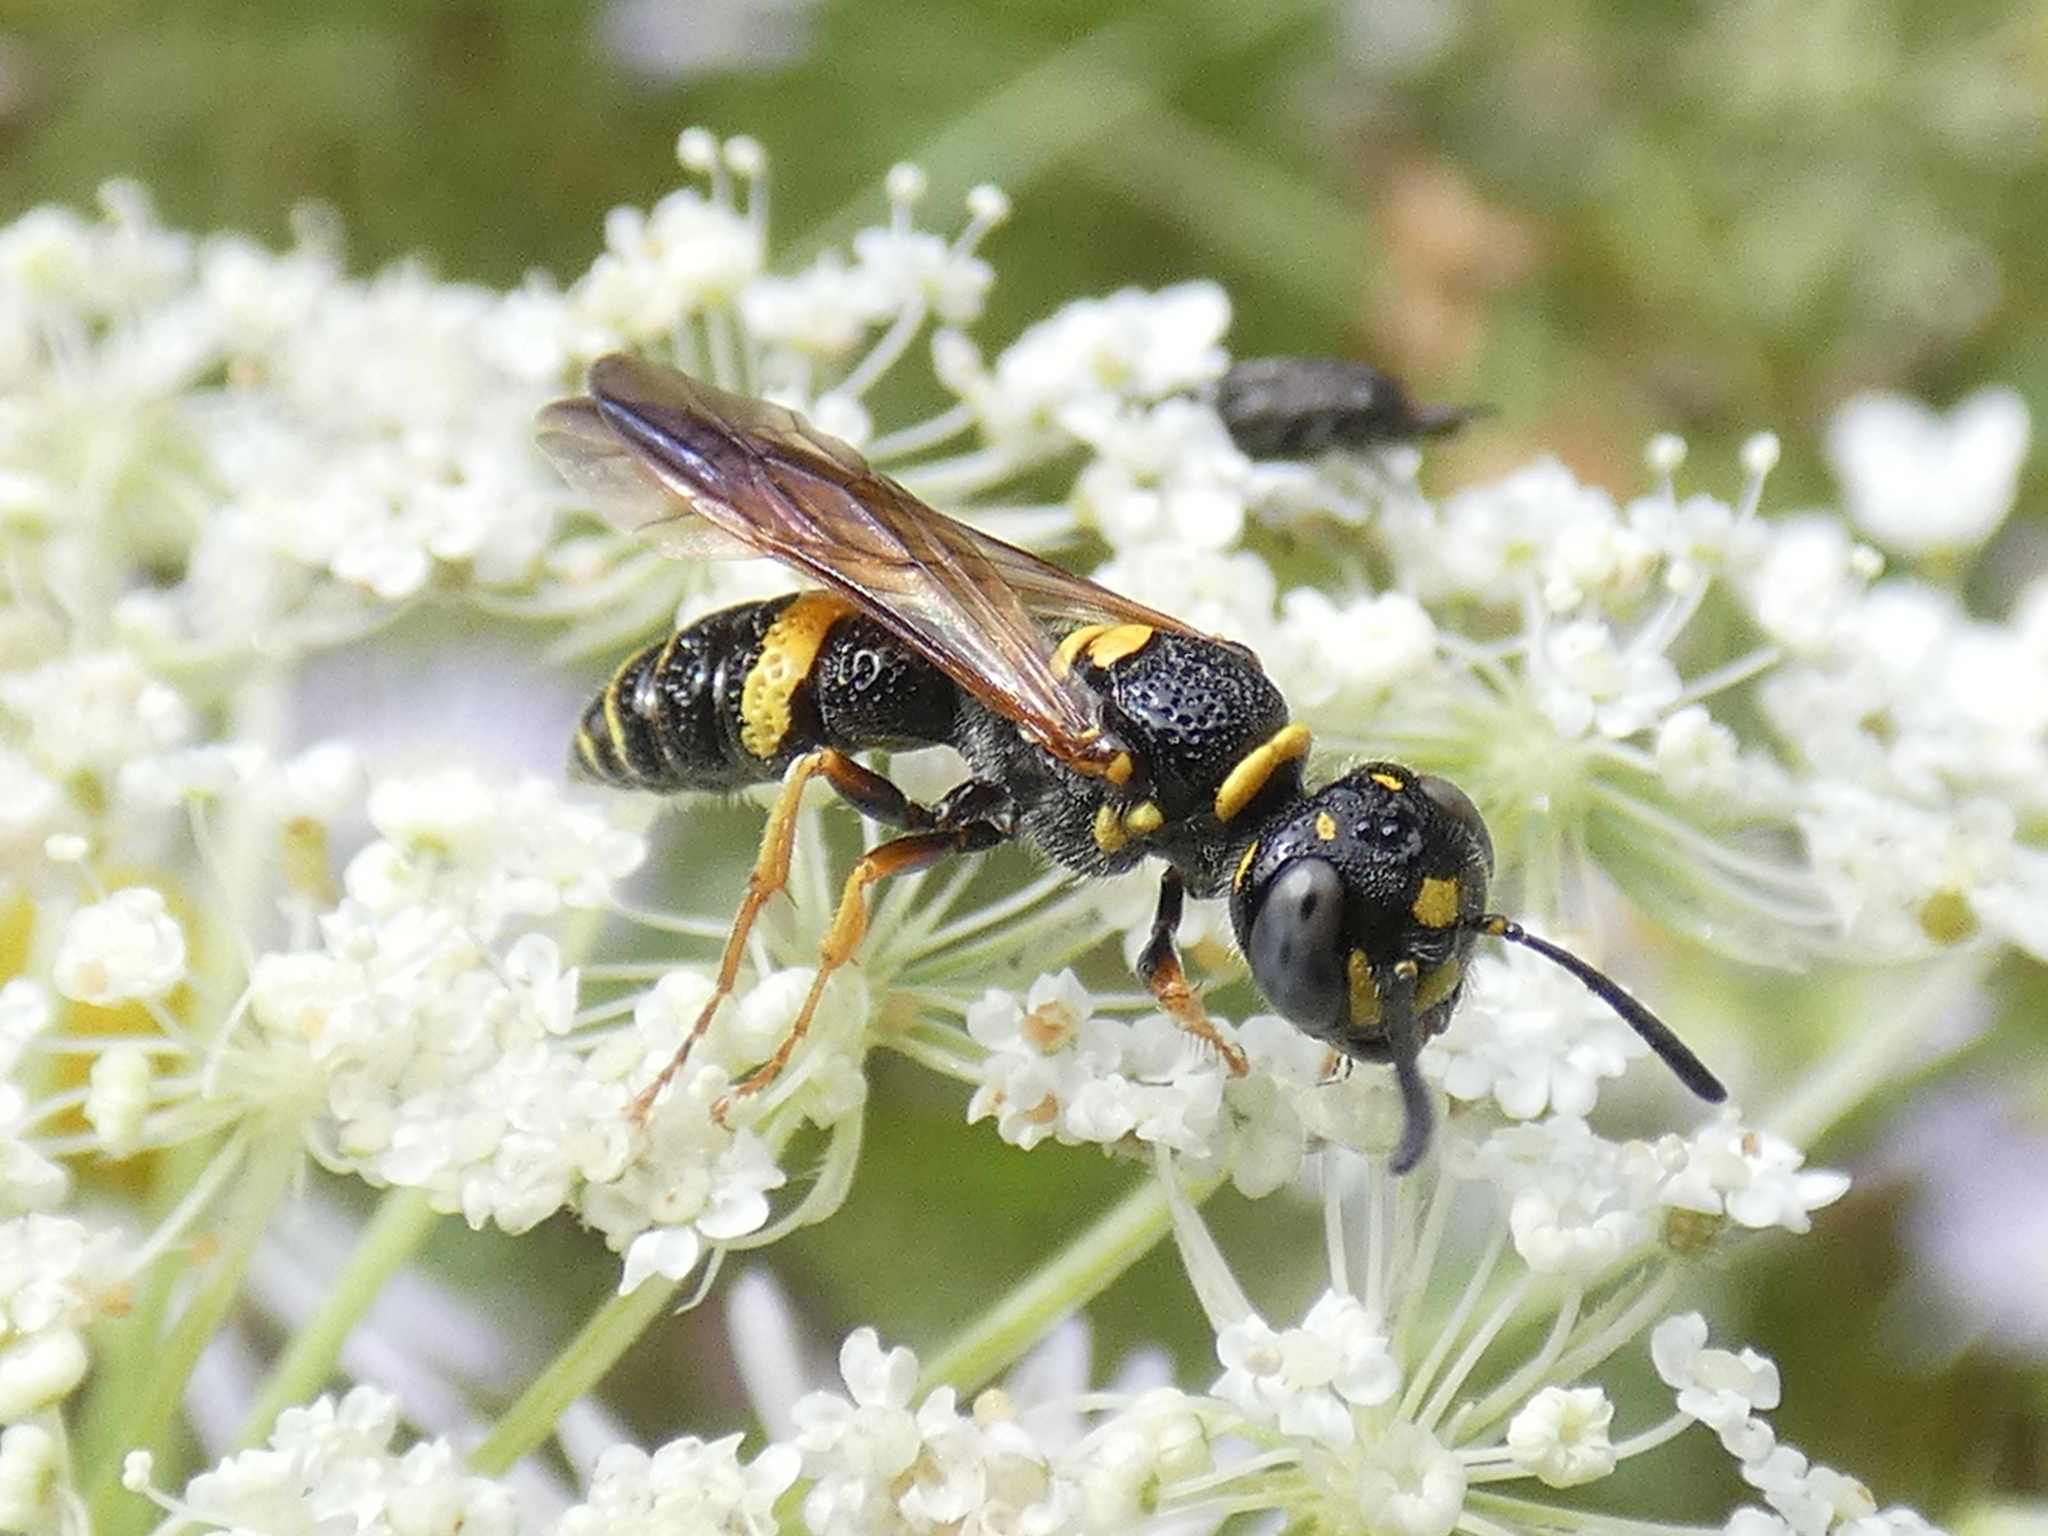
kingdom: Animalia
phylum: Arthropoda
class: Insecta
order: Hymenoptera
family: Crabronidae
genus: Philanthus
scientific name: Philanthus gibbosus
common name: Humped beewolf
